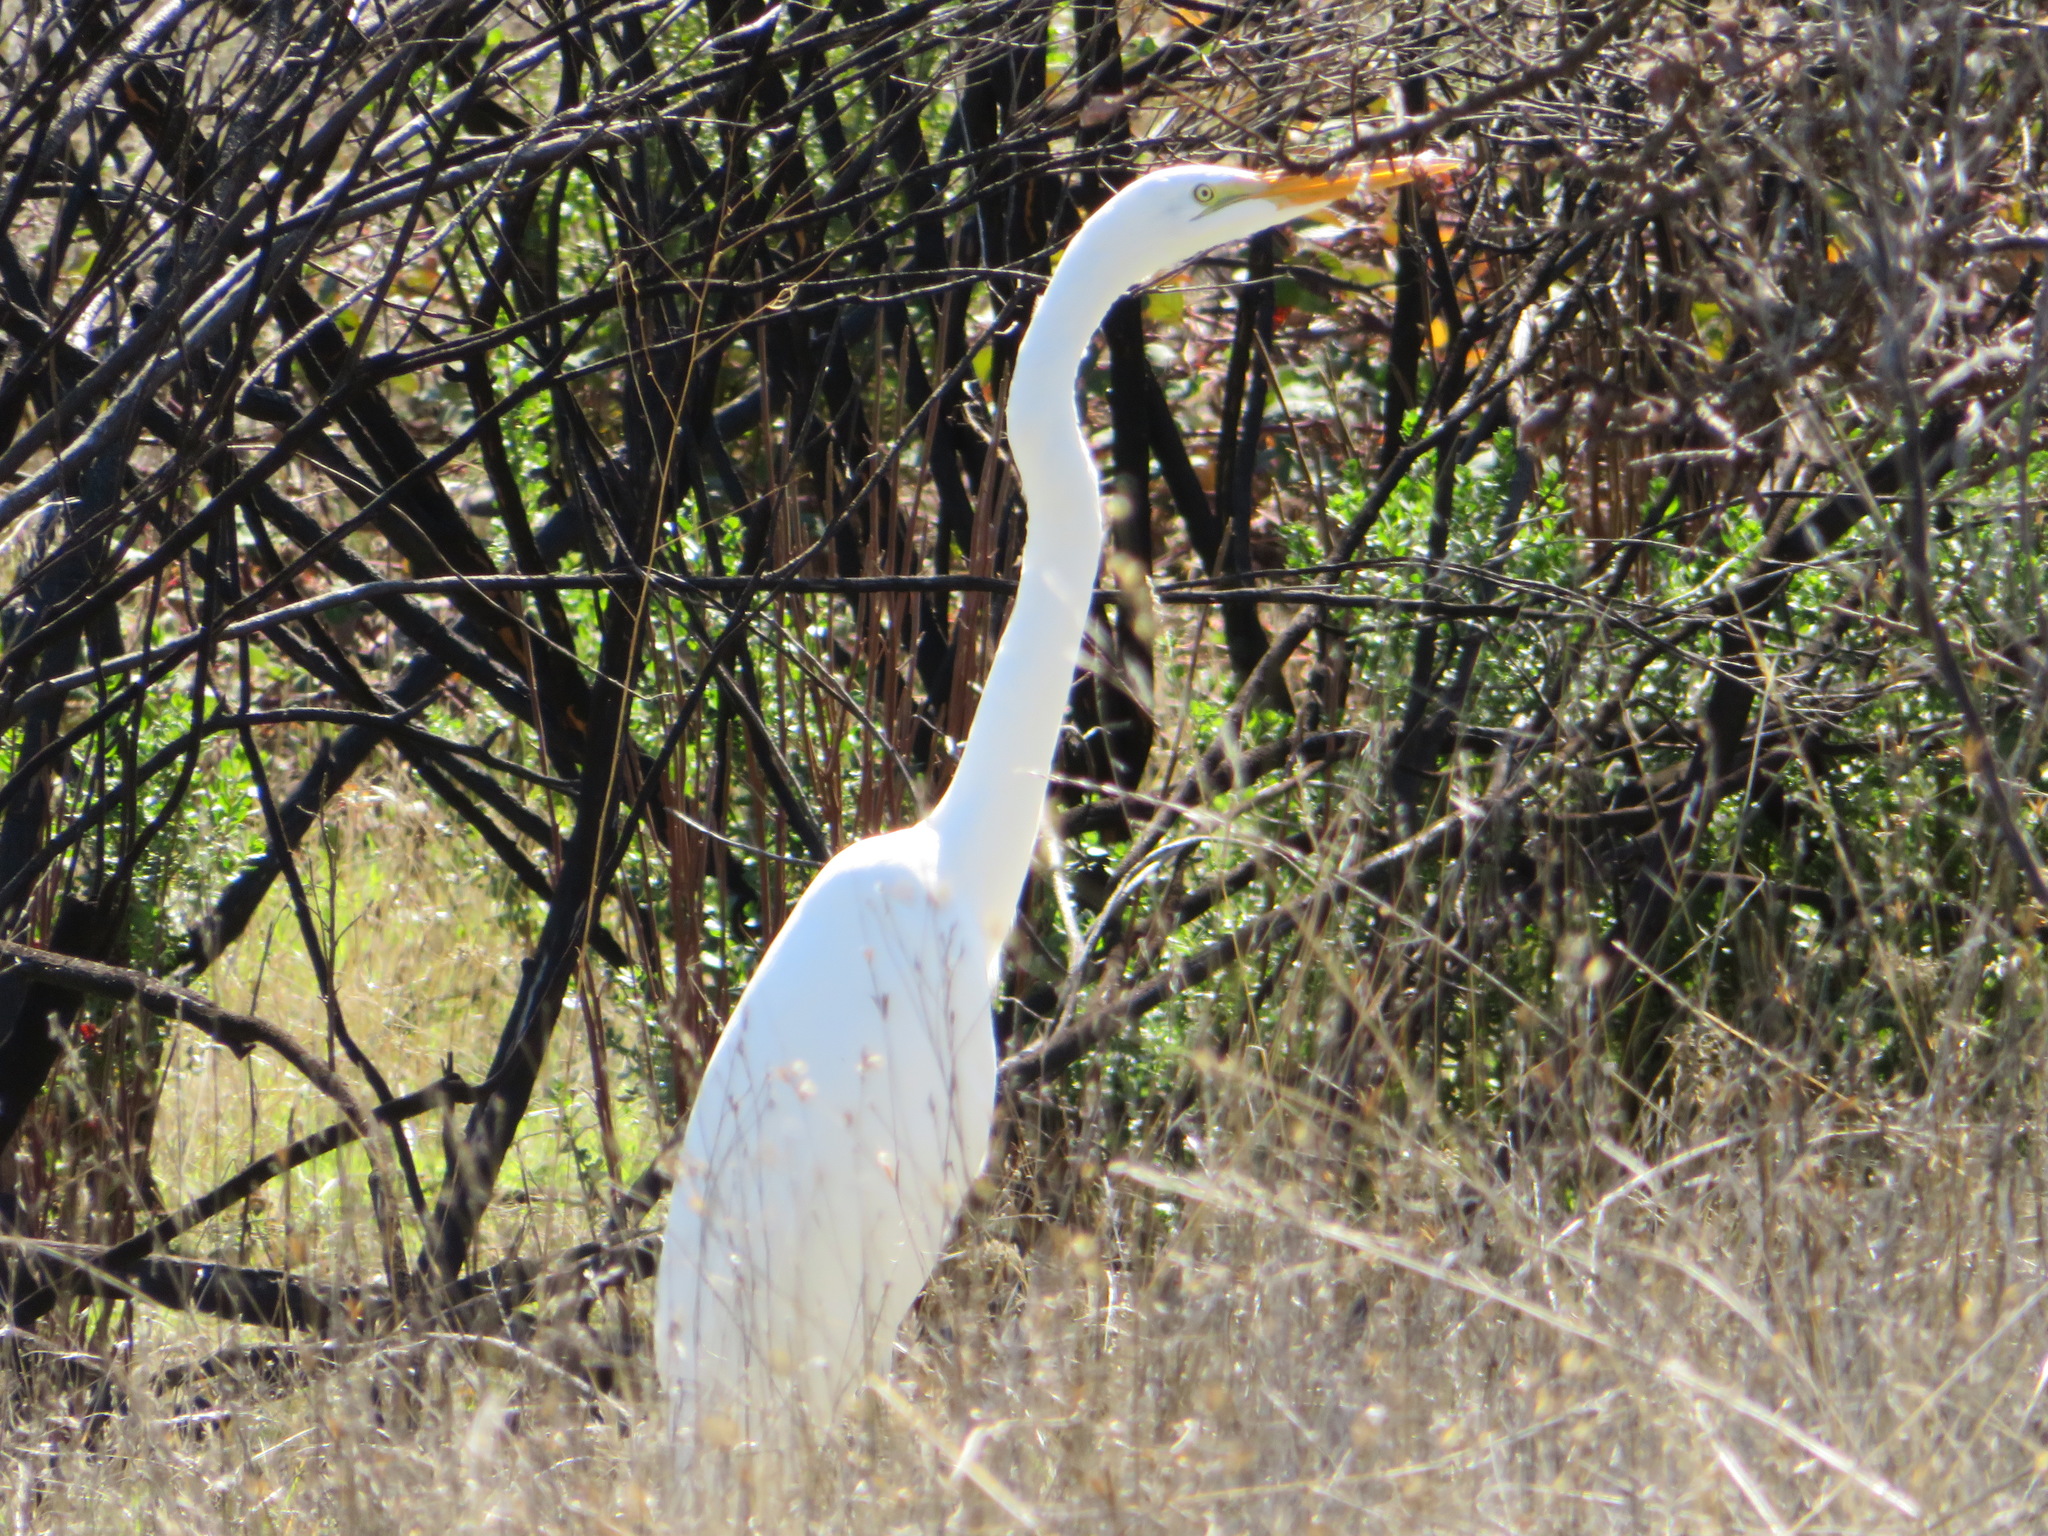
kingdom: Animalia
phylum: Chordata
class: Aves
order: Pelecaniformes
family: Ardeidae
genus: Ardea
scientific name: Ardea alba
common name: Great egret
